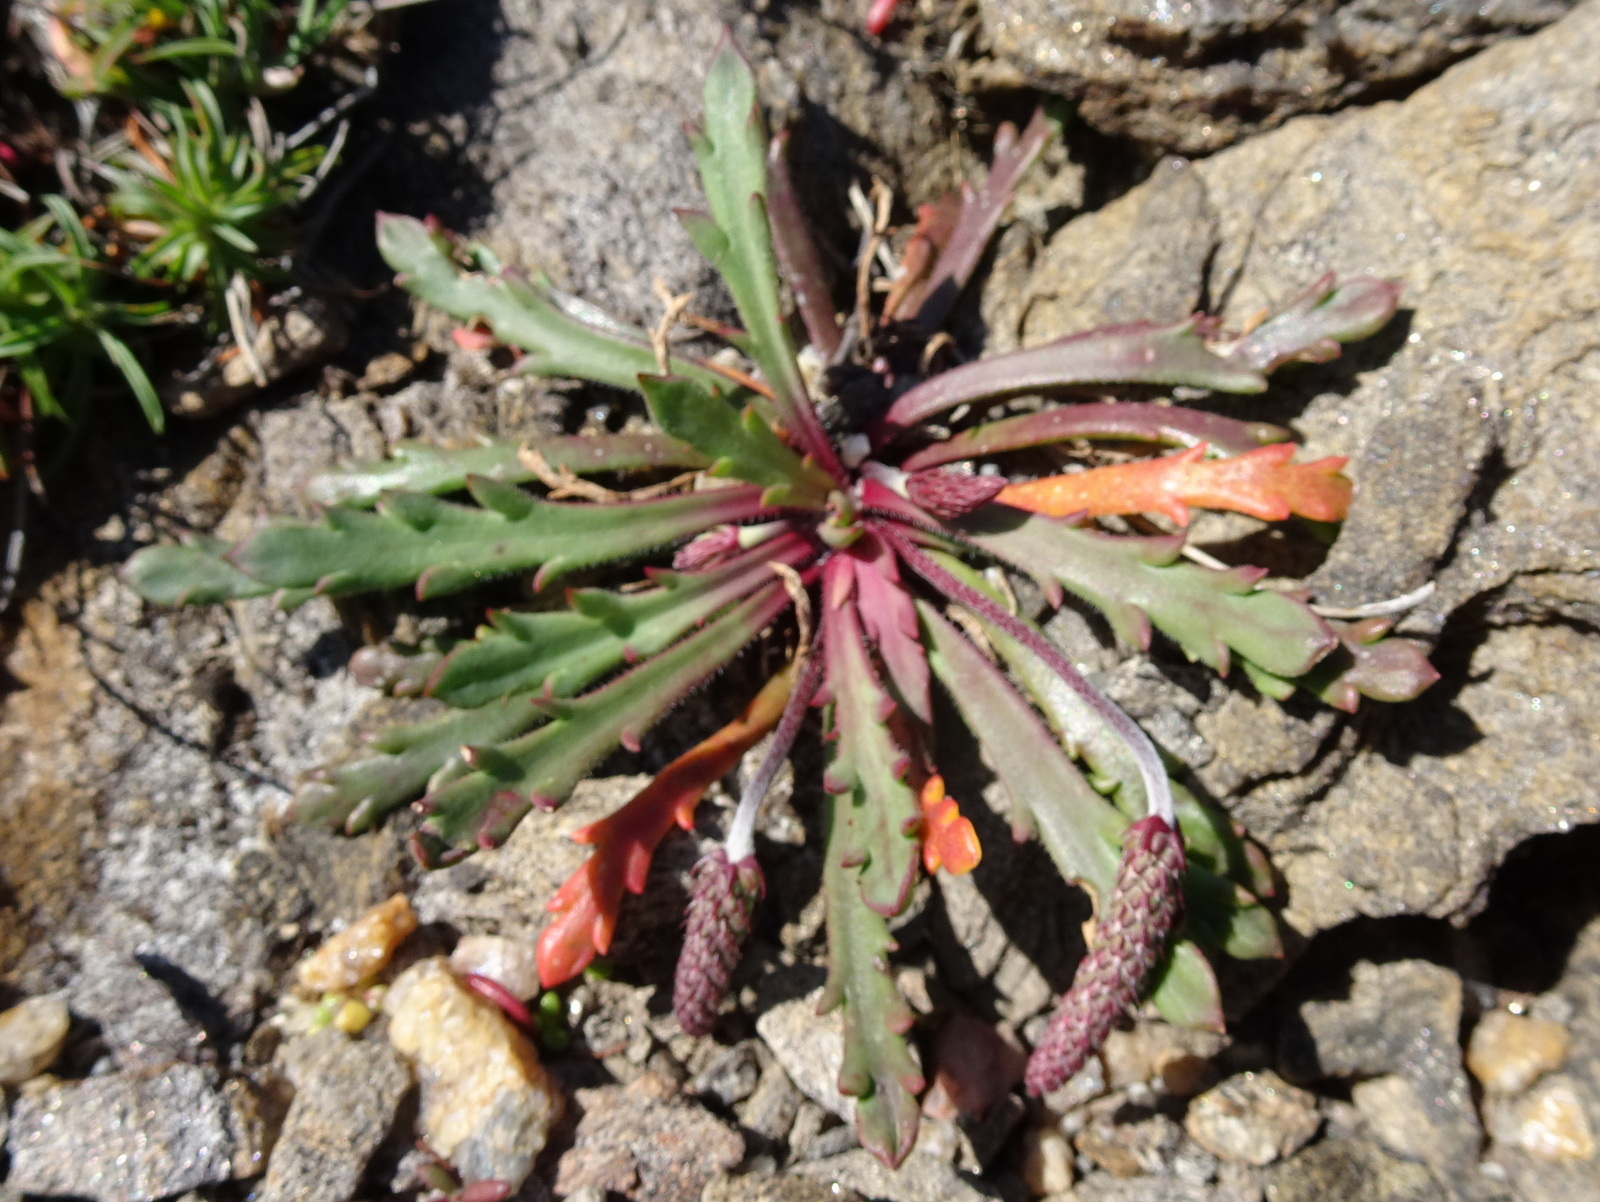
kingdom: Plantae
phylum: Tracheophyta
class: Magnoliopsida
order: Lamiales
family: Plantaginaceae
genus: Plantago
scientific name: Plantago coronopus
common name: Buck's-horn plantain
